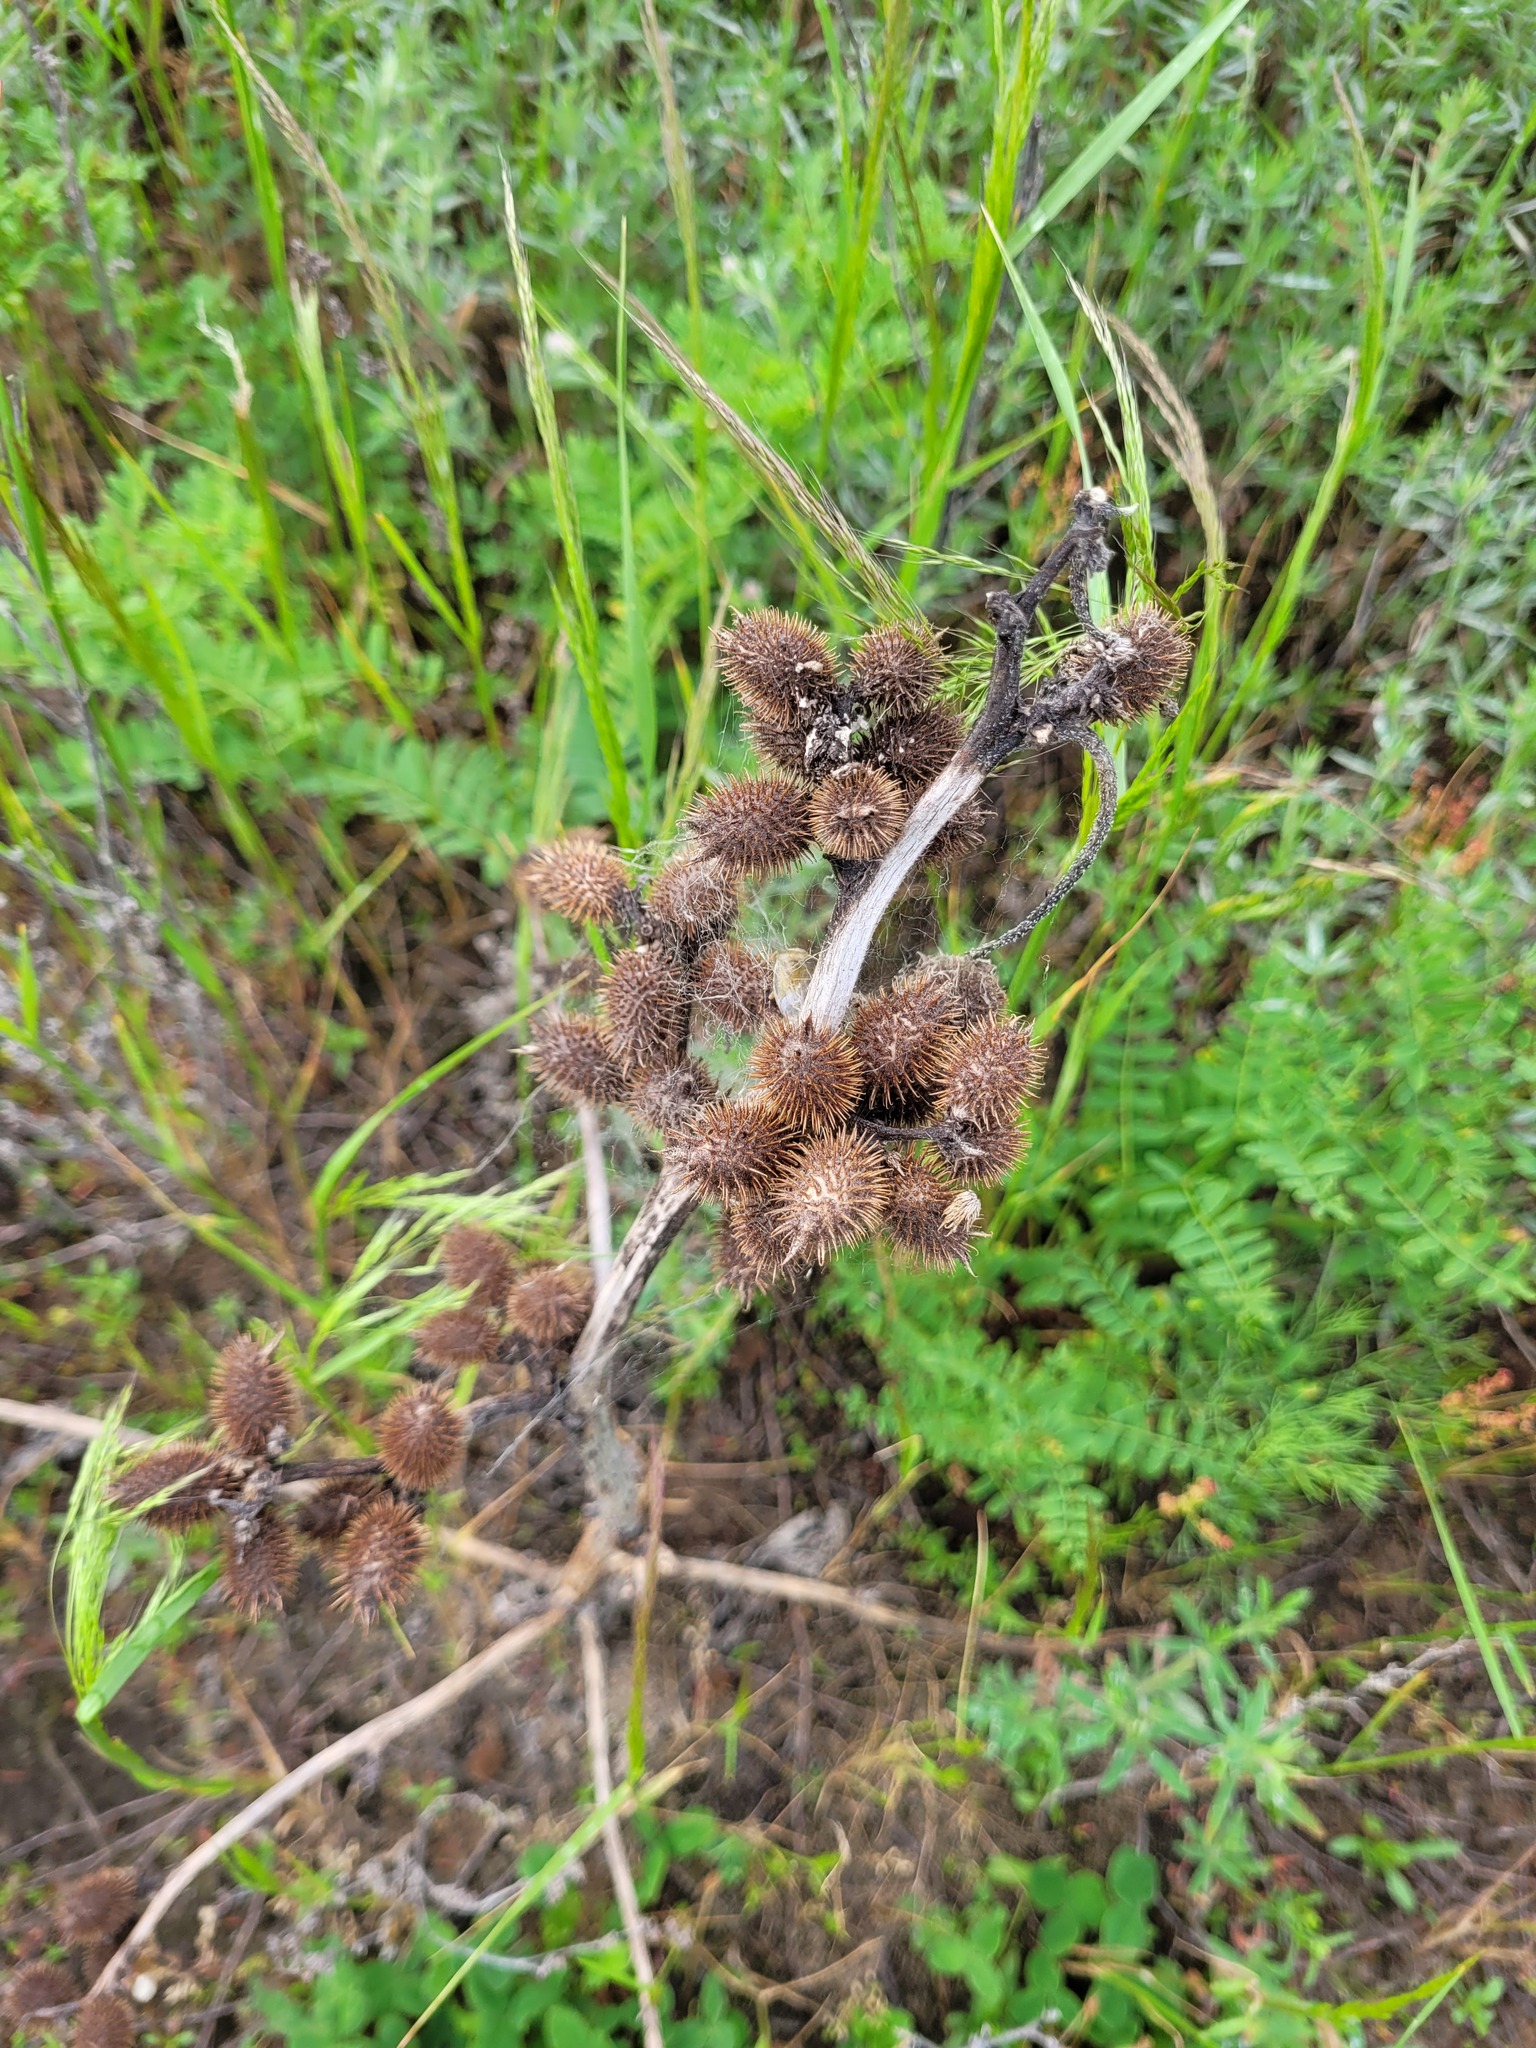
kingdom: Plantae
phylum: Tracheophyta
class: Magnoliopsida
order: Asterales
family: Asteraceae
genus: Xanthium
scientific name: Xanthium orientale
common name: Californian burr
